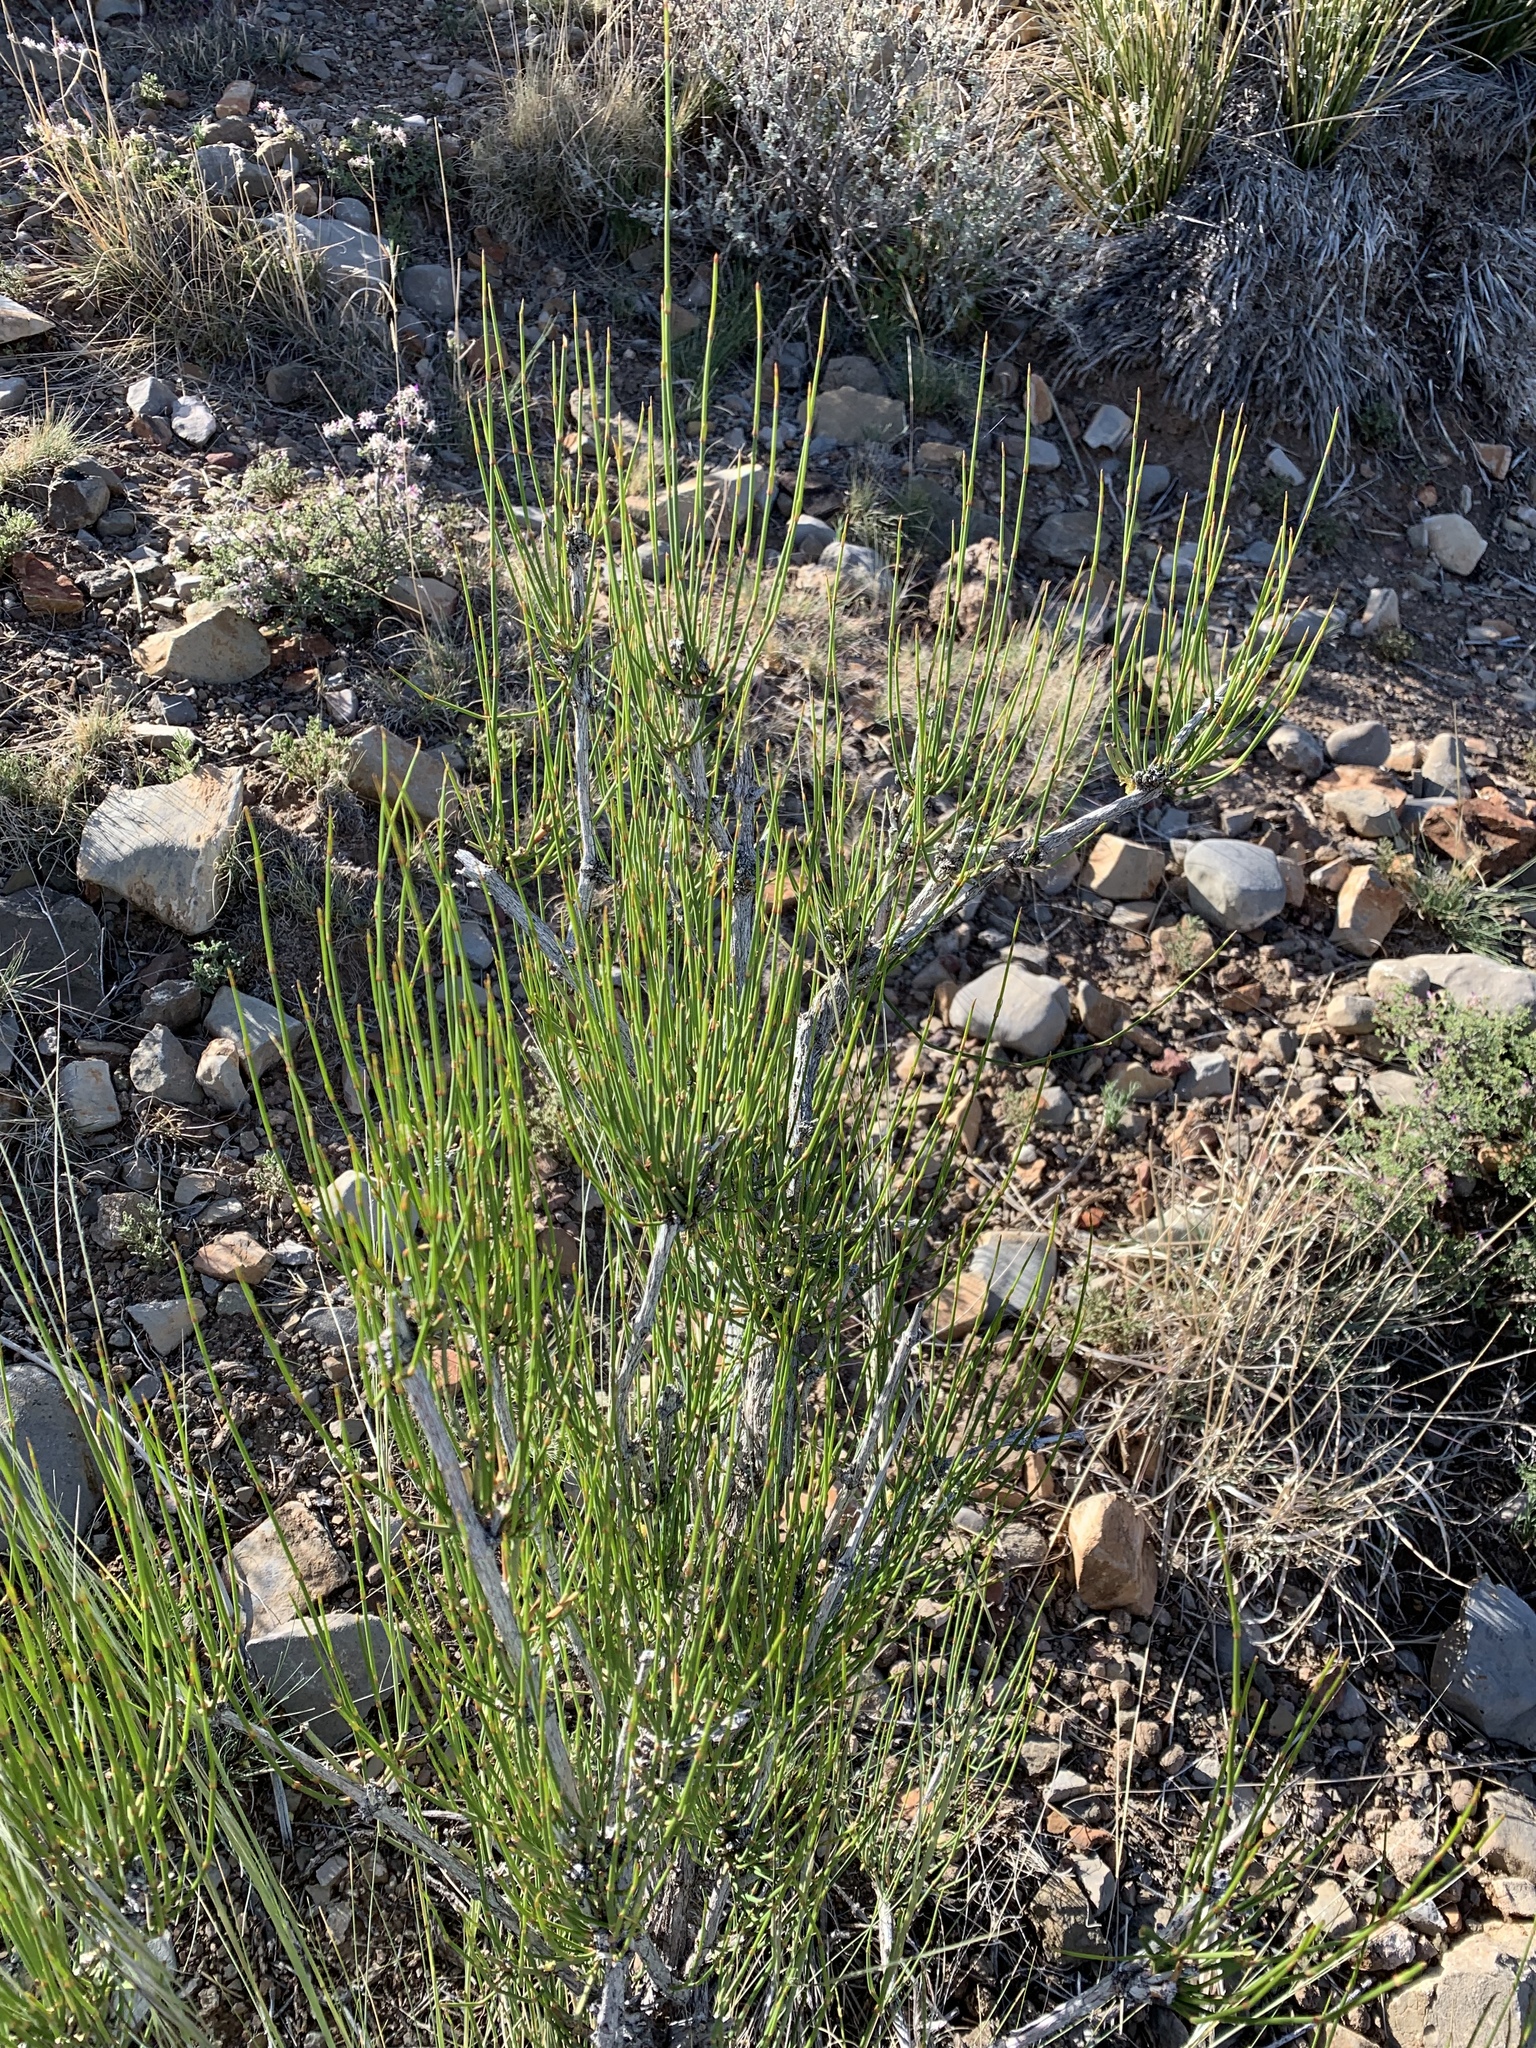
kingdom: Plantae
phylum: Tracheophyta
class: Gnetopsida
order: Ephedrales
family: Ephedraceae
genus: Ephedra
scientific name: Ephedra viridis
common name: Green ephedra
